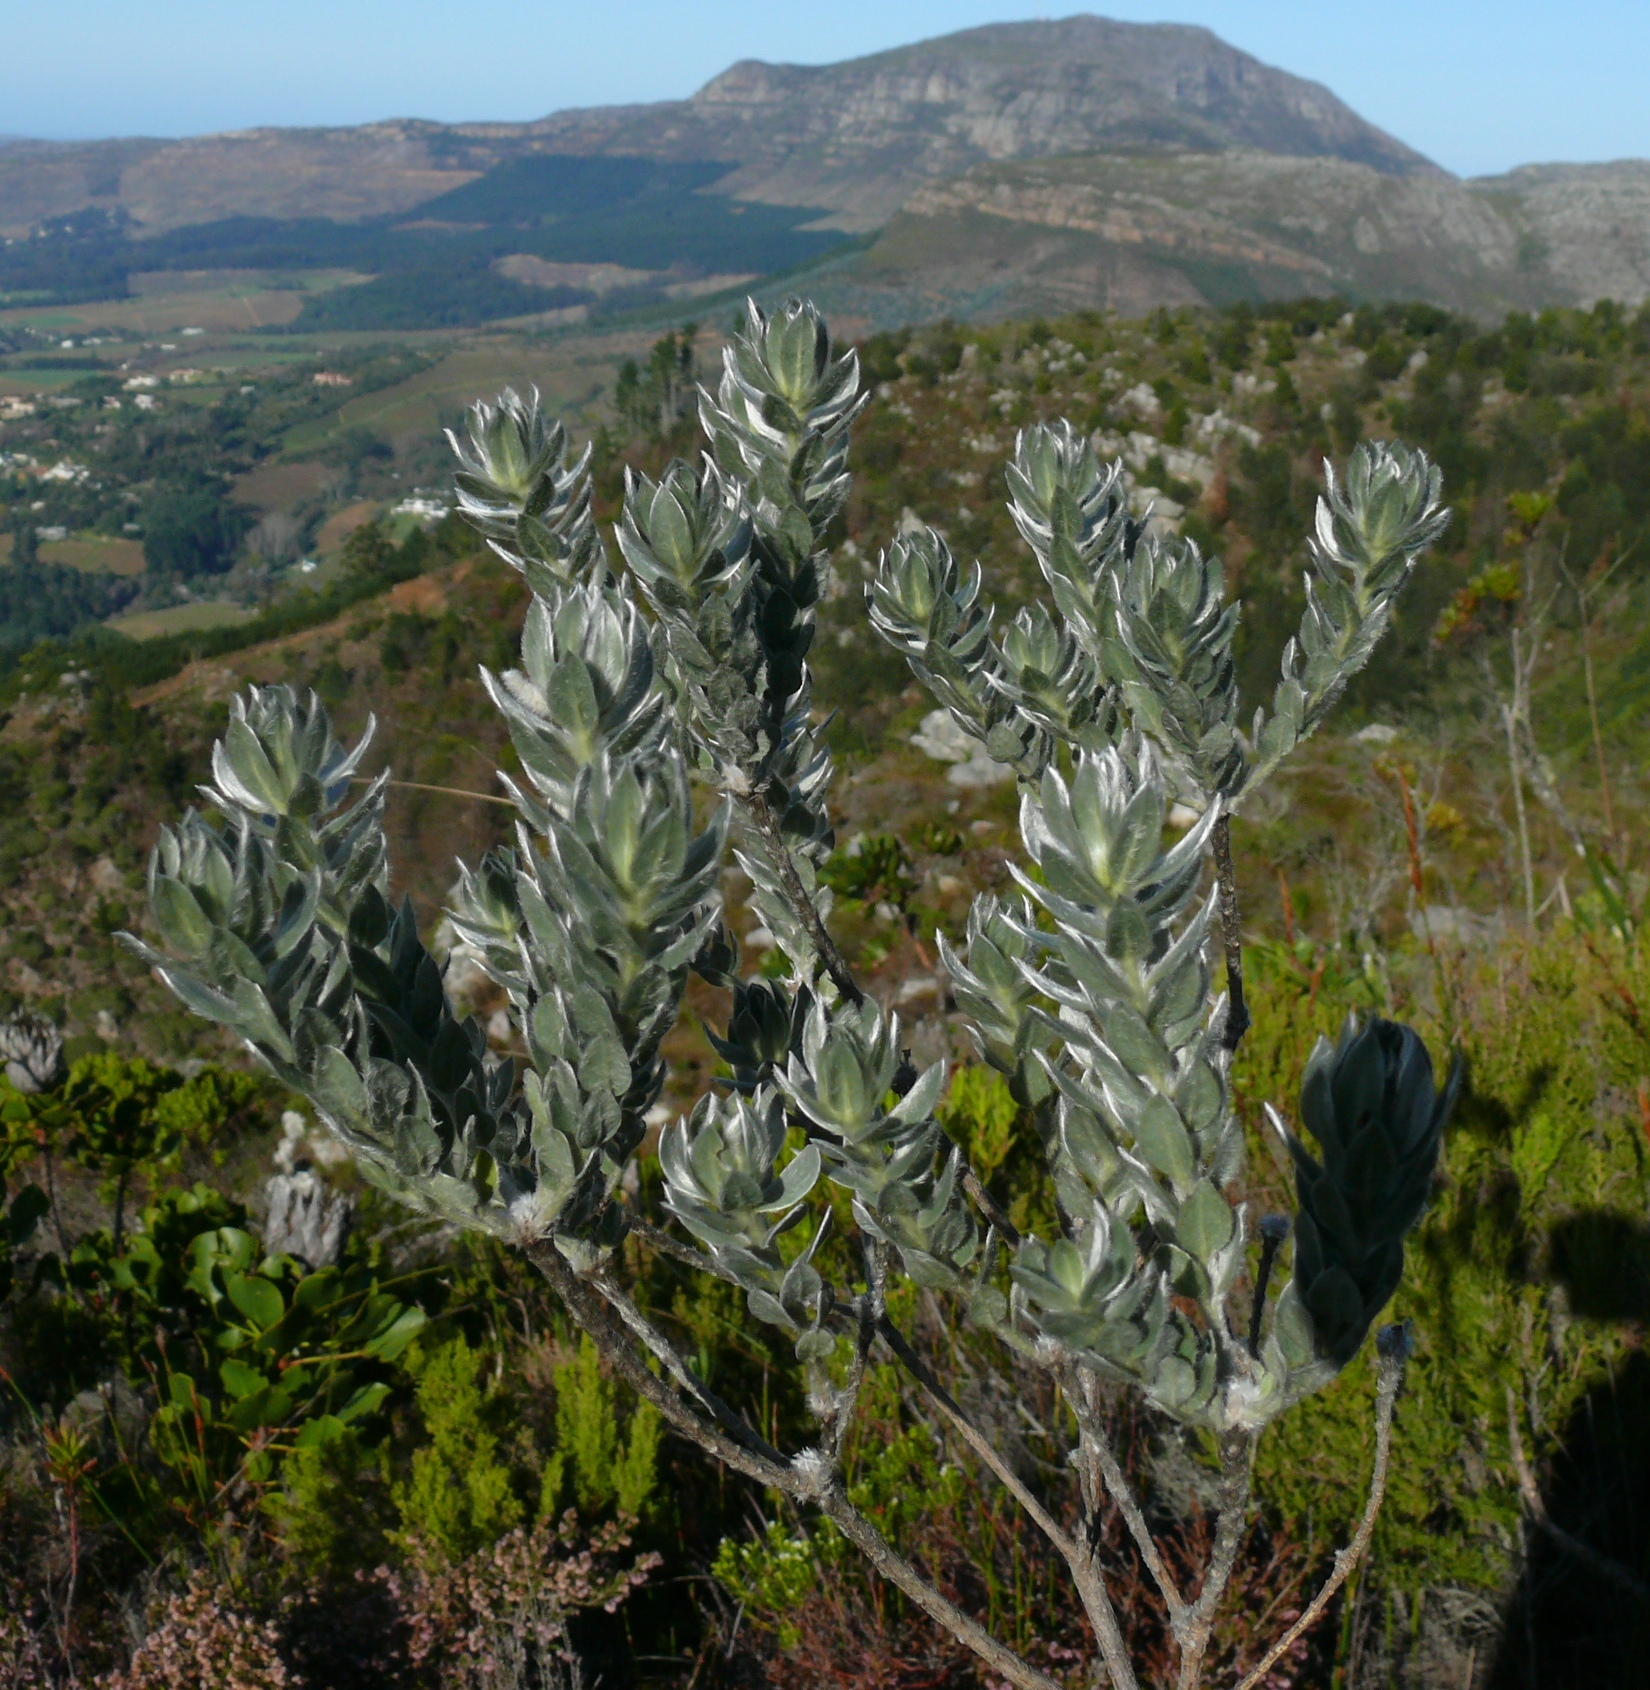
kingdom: Plantae
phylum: Tracheophyta
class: Magnoliopsida
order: Fabales
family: Fabaceae
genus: Xiphotheca
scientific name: Xiphotheca fruticosa
